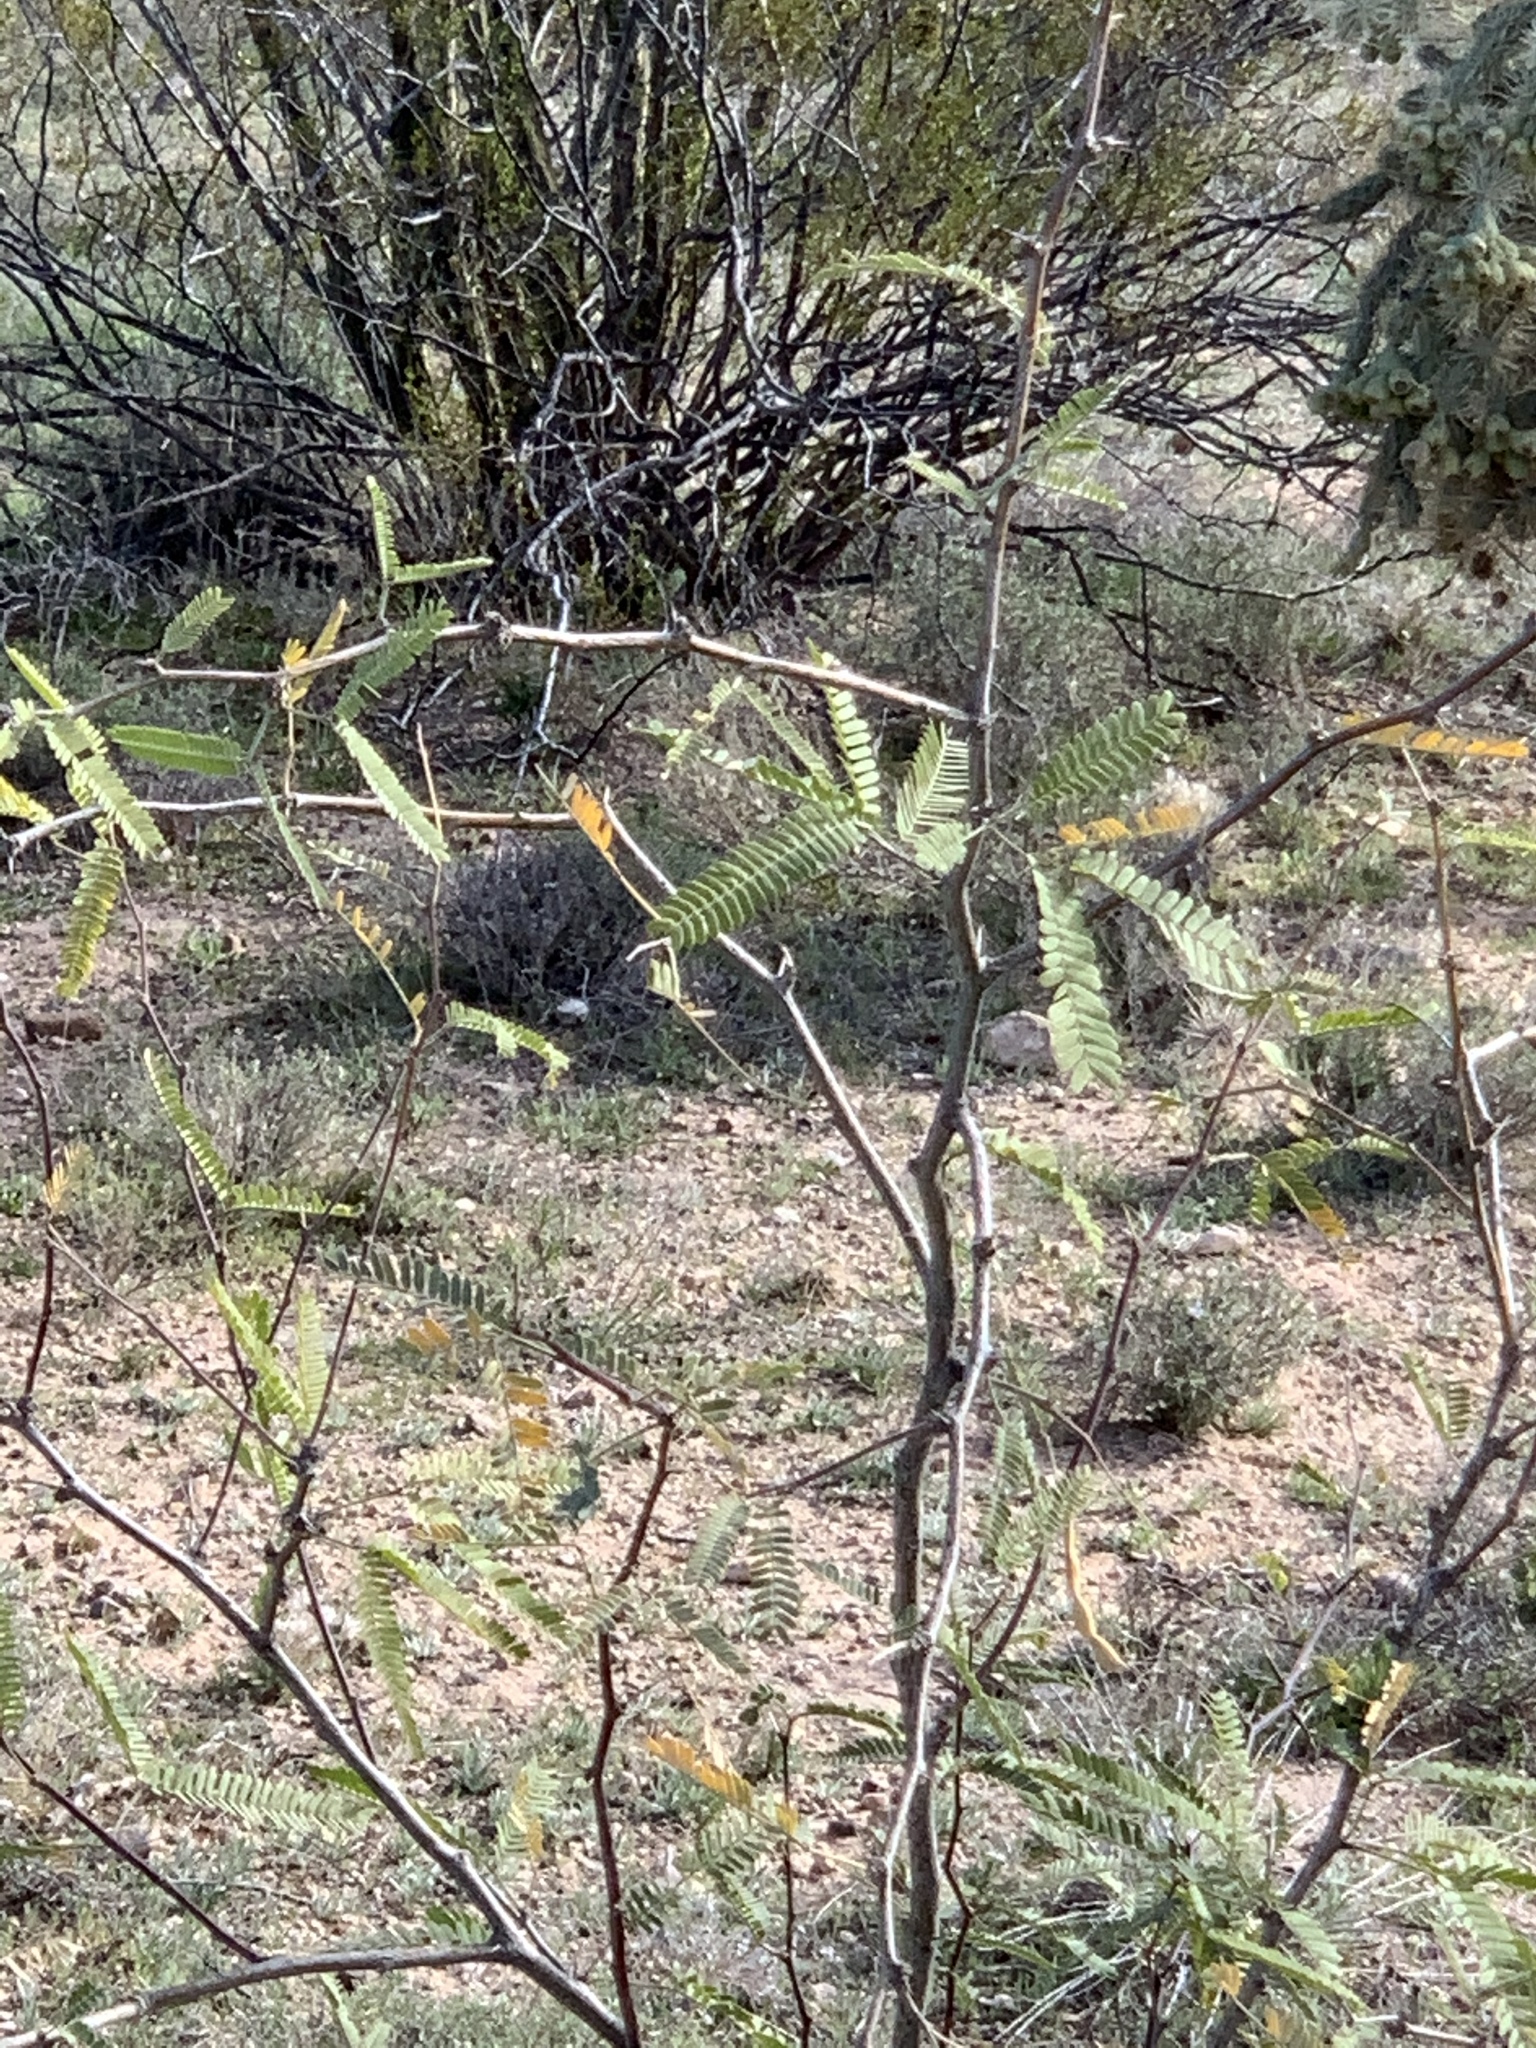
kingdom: Plantae
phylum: Tracheophyta
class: Magnoliopsida
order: Fabales
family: Fabaceae
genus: Prosopis
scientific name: Prosopis velutina
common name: Velvet mesquite
